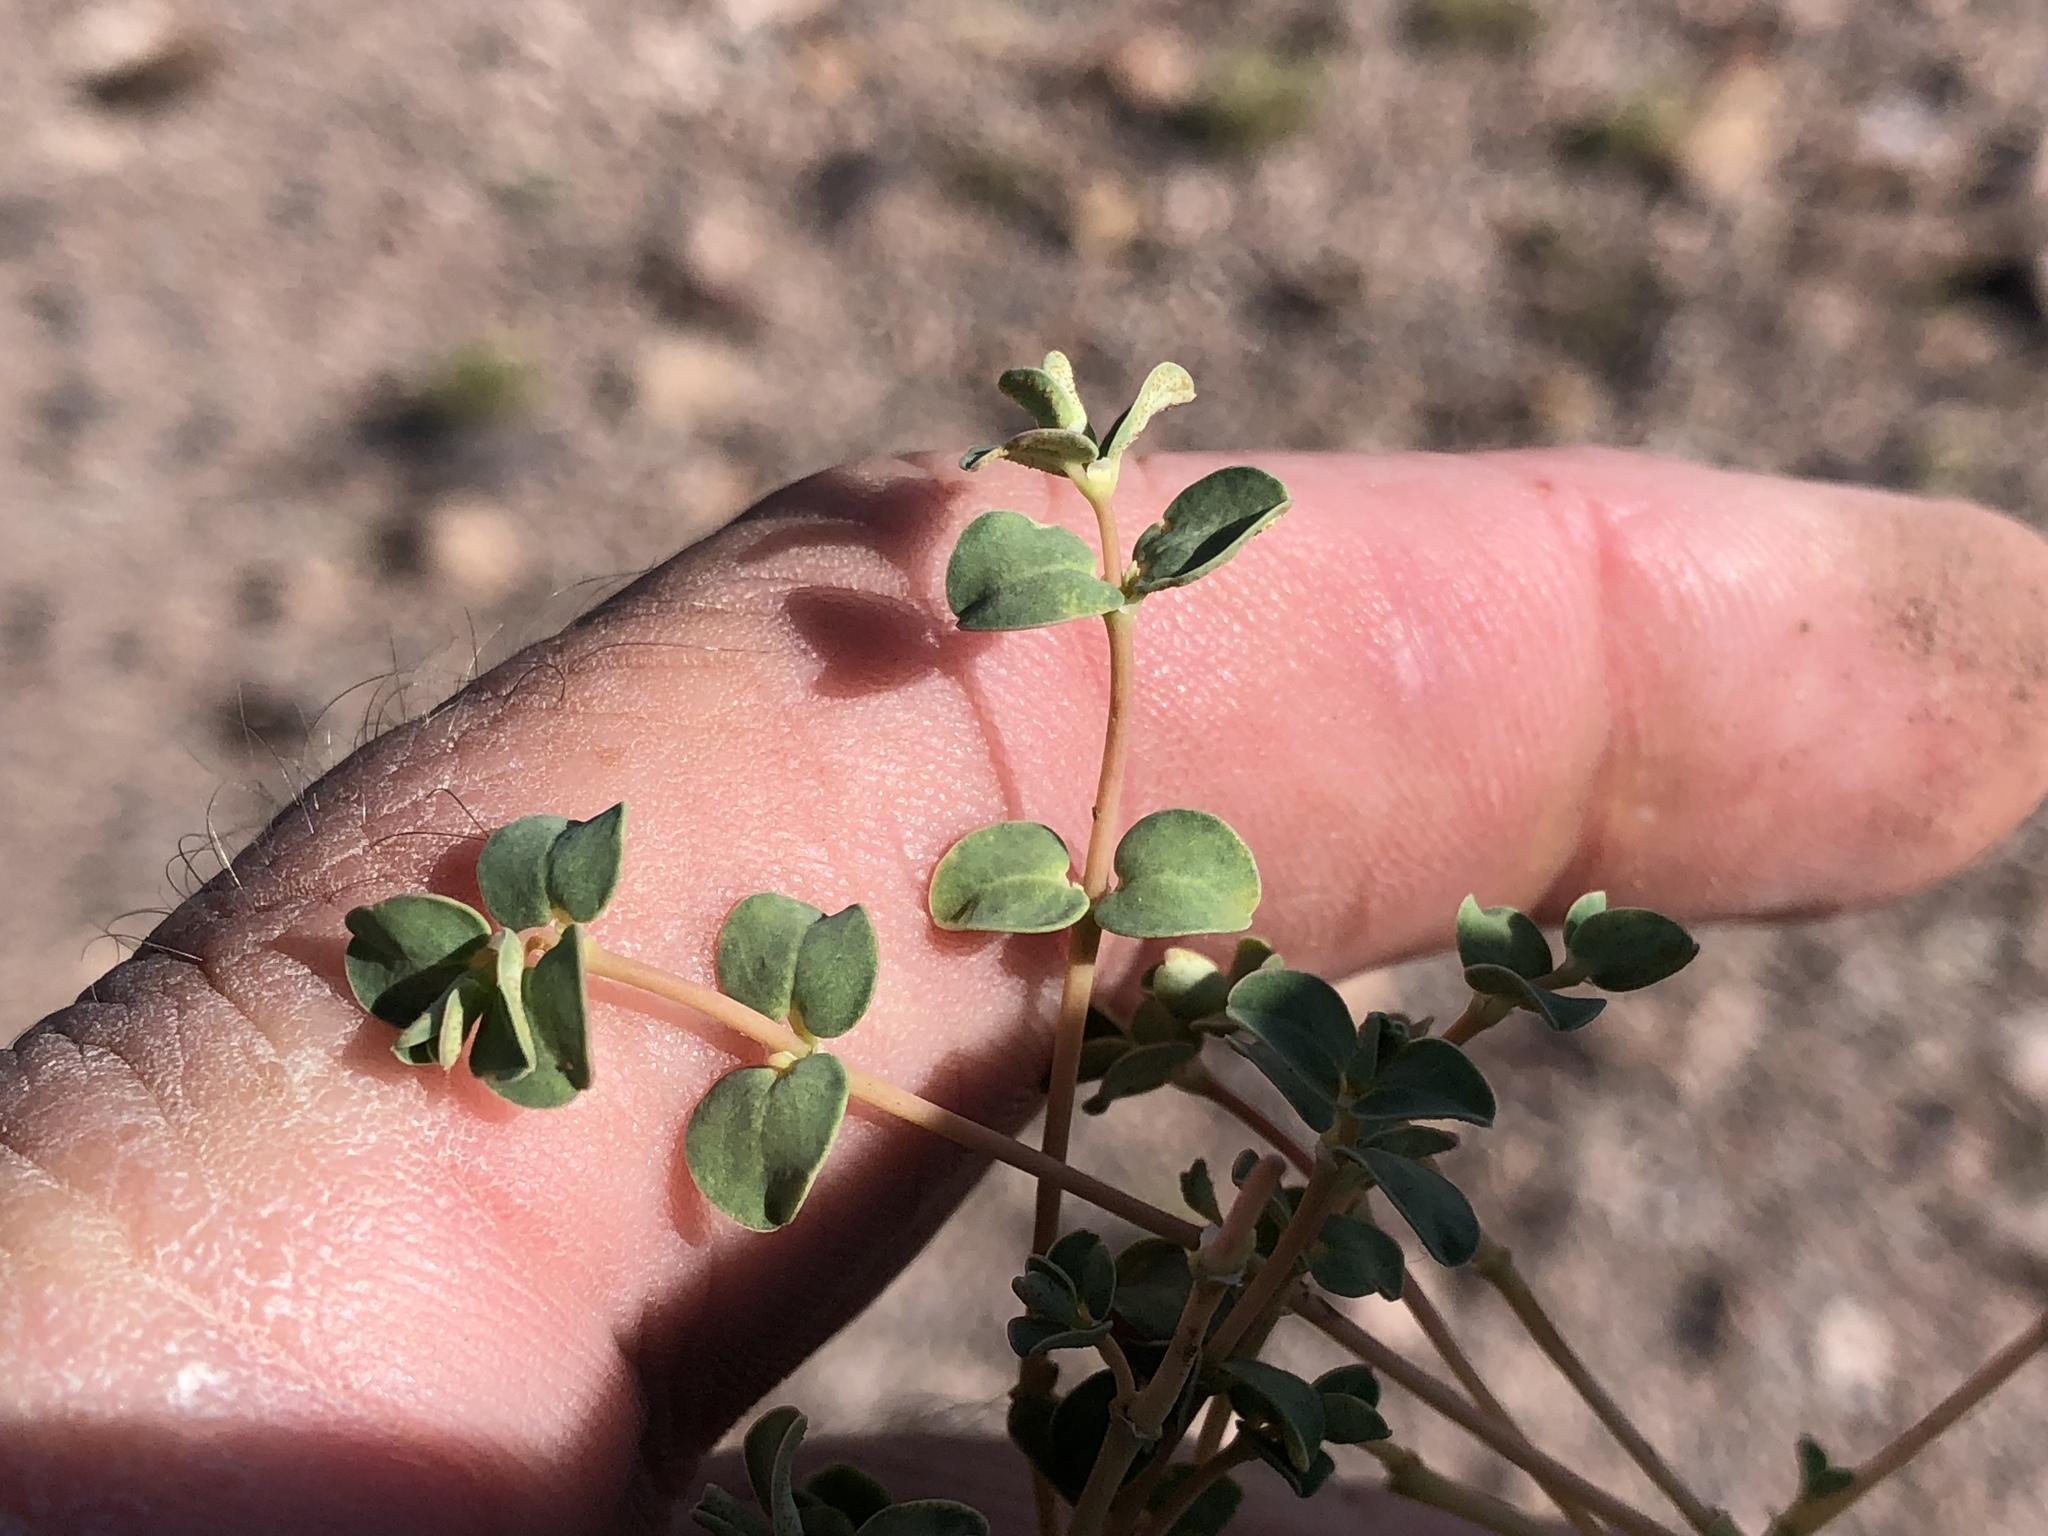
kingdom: Plantae
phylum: Tracheophyta
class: Magnoliopsida
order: Malpighiales
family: Euphorbiaceae
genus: Euphorbia
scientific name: Euphorbia albomarginata
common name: Whitemargin sandmat
